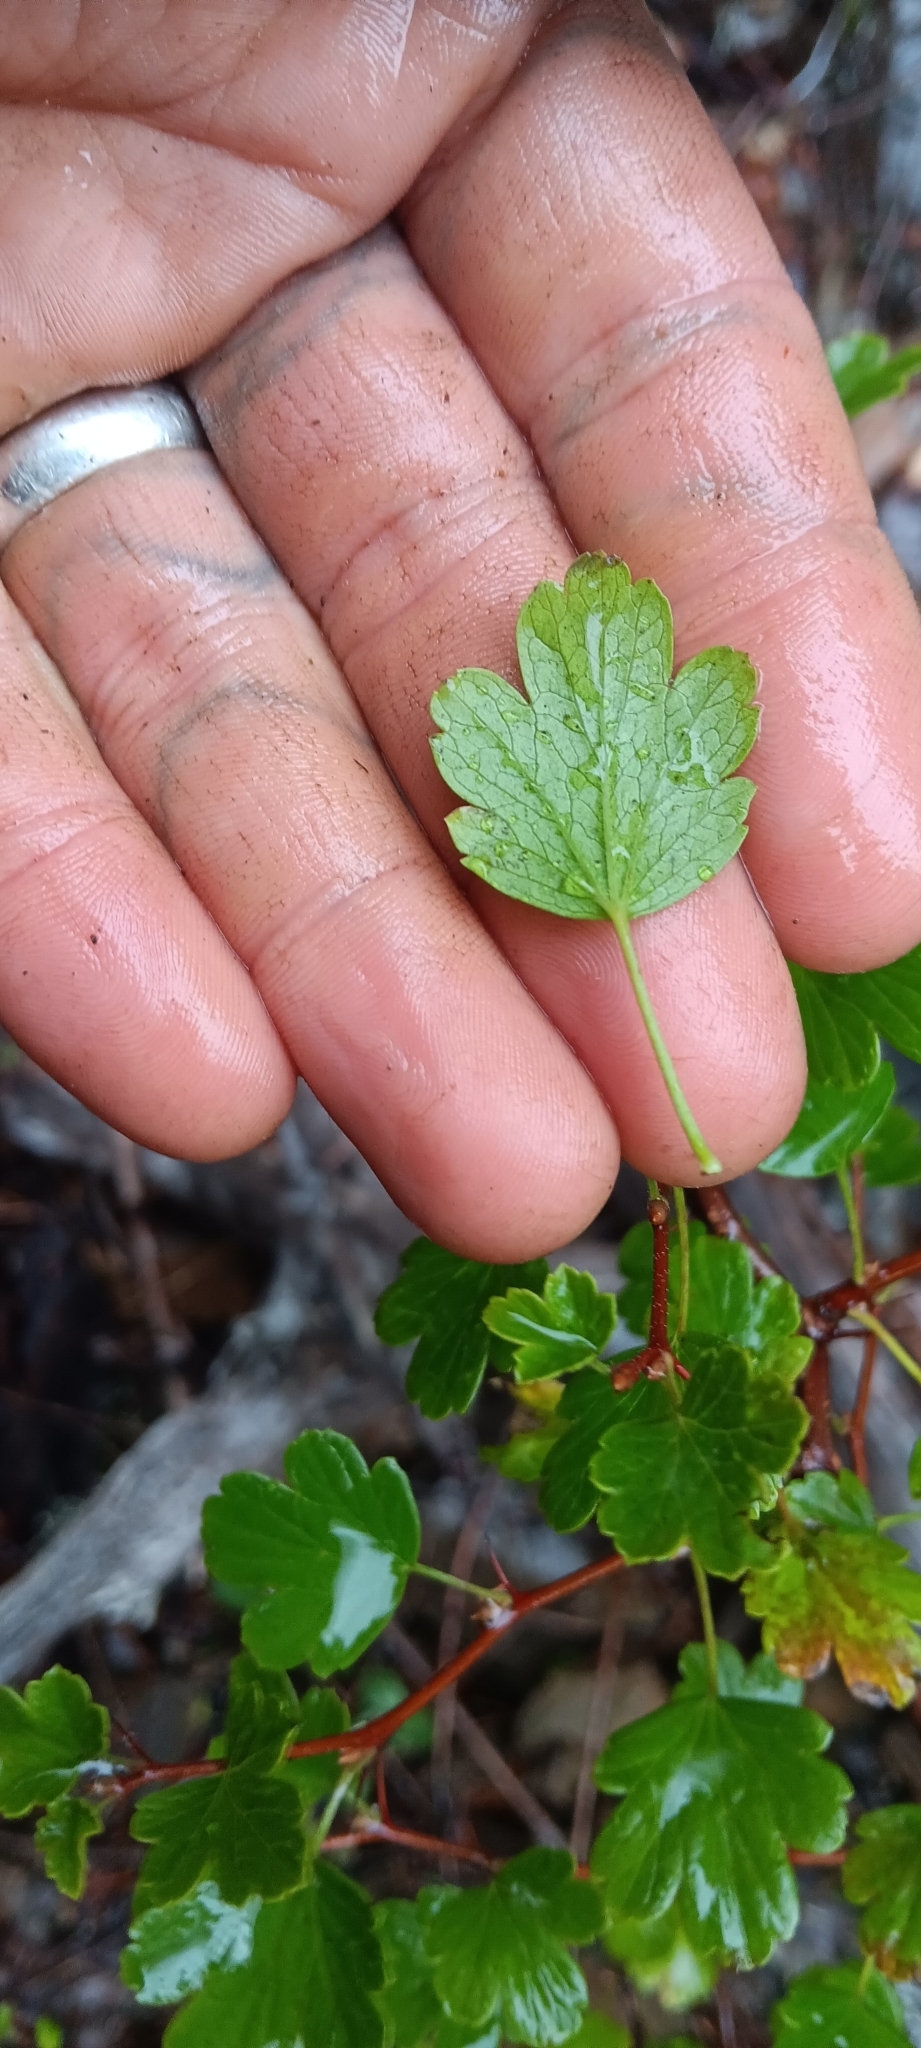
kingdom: Plantae
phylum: Tracheophyta
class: Magnoliopsida
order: Saxifragales
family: Grossulariaceae
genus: Ribes
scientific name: Ribes roezlii
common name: Sierra gooseberry
